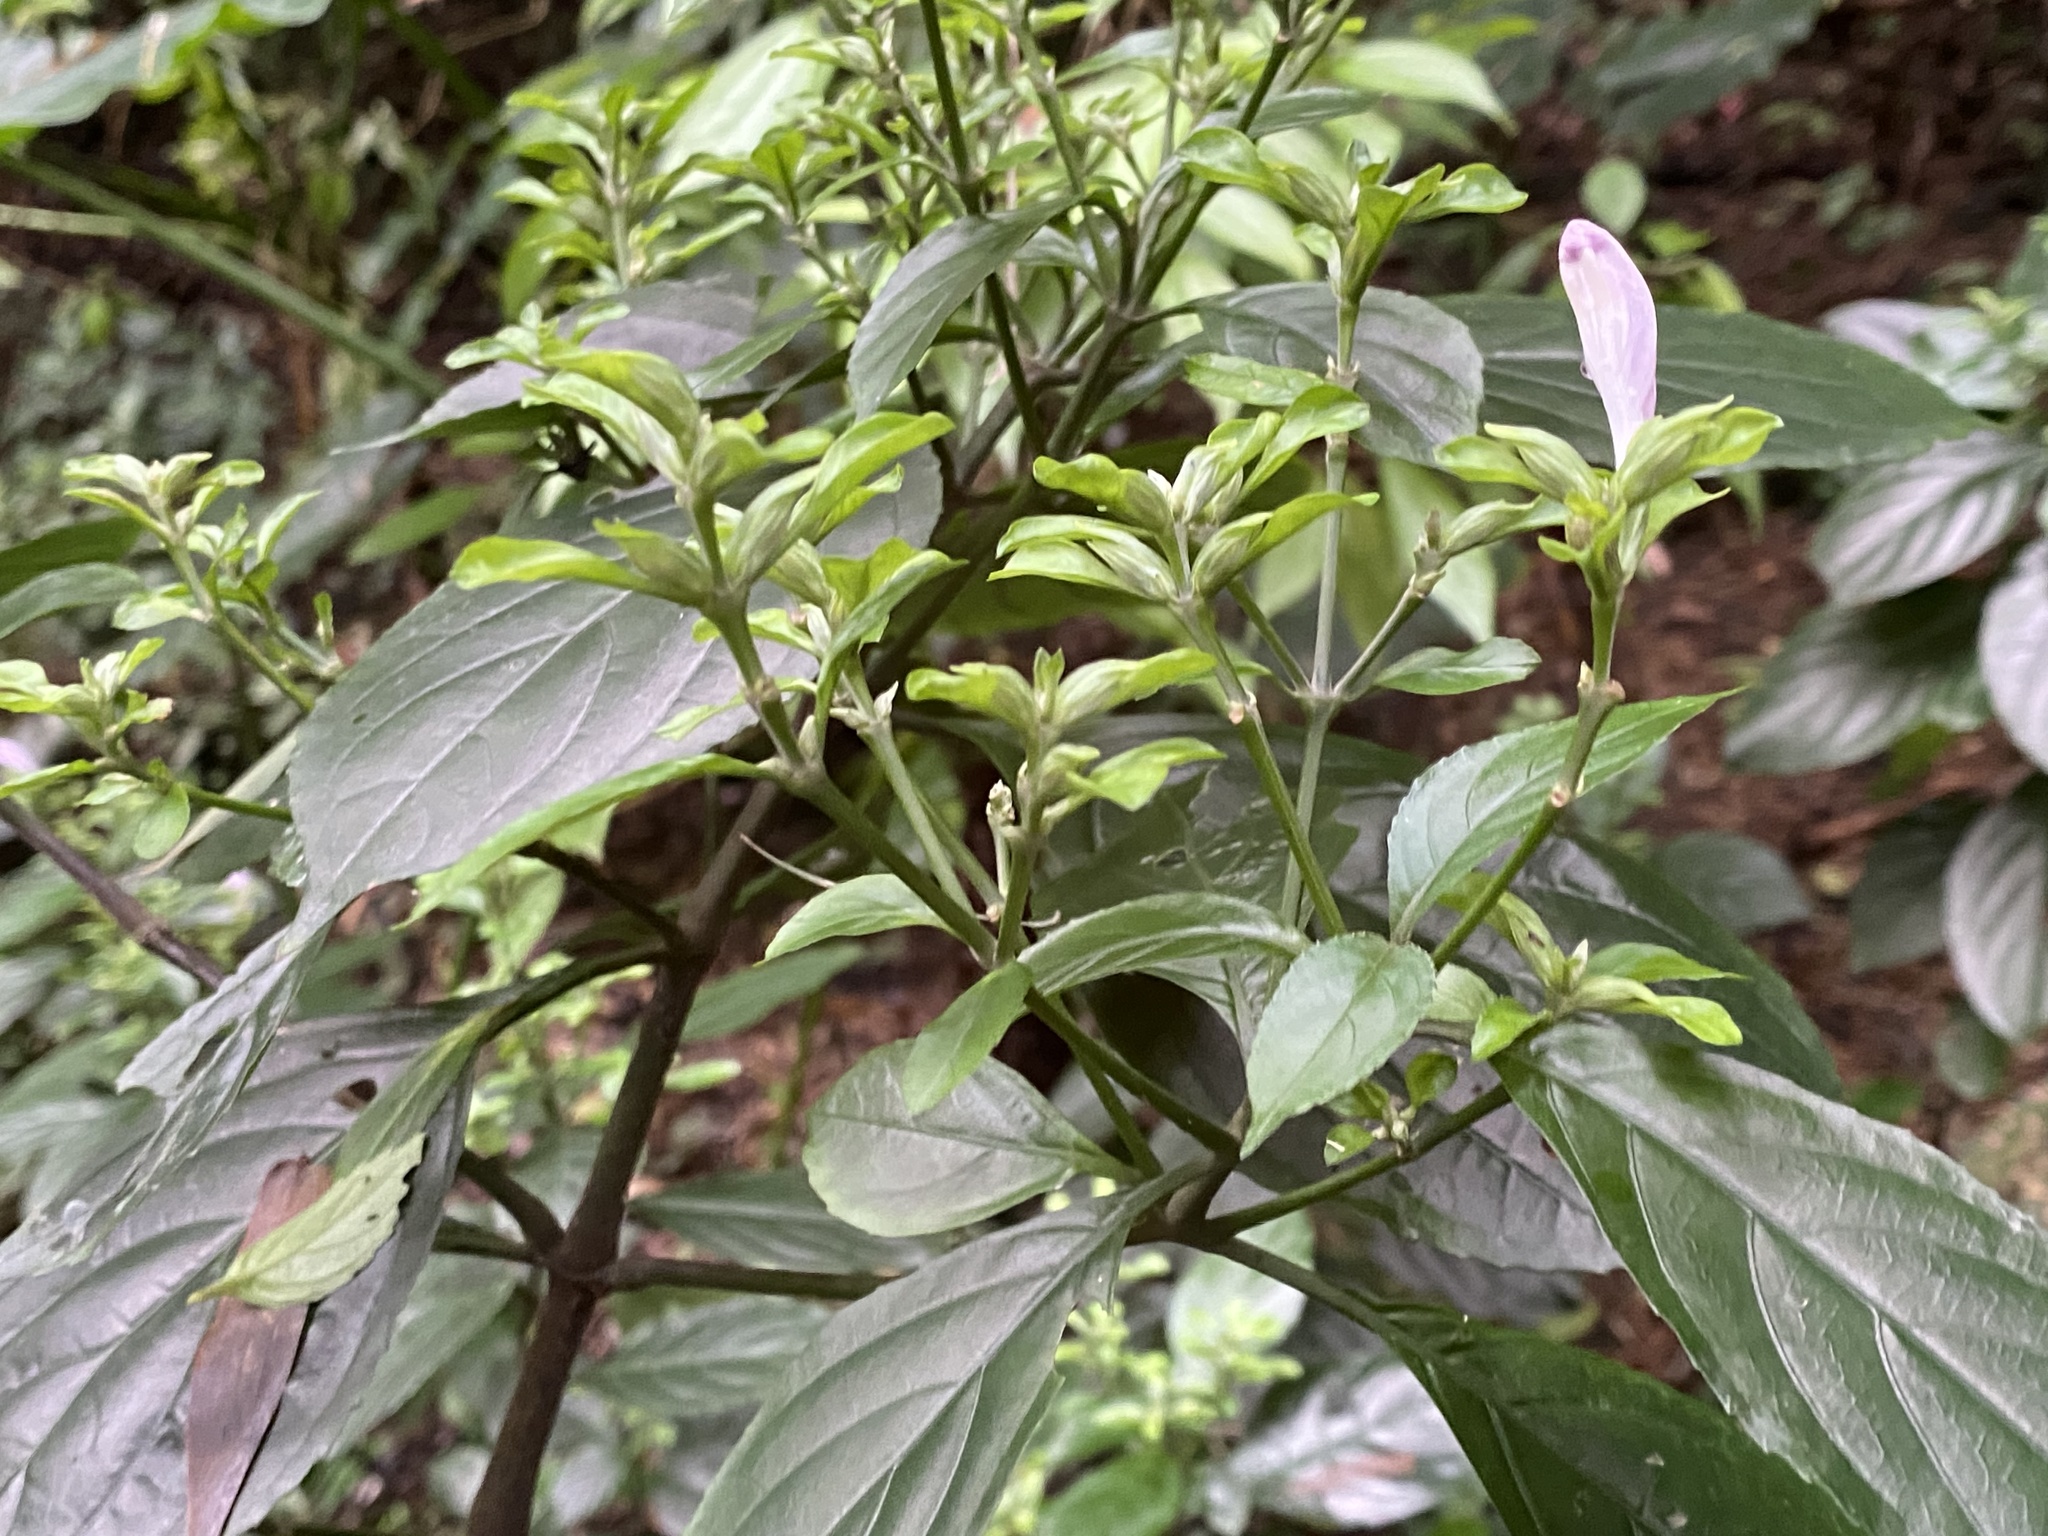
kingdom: Plantae
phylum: Tracheophyta
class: Magnoliopsida
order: Lamiales
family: Acanthaceae
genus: Strobilanthes
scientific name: Strobilanthes flexicaulis
